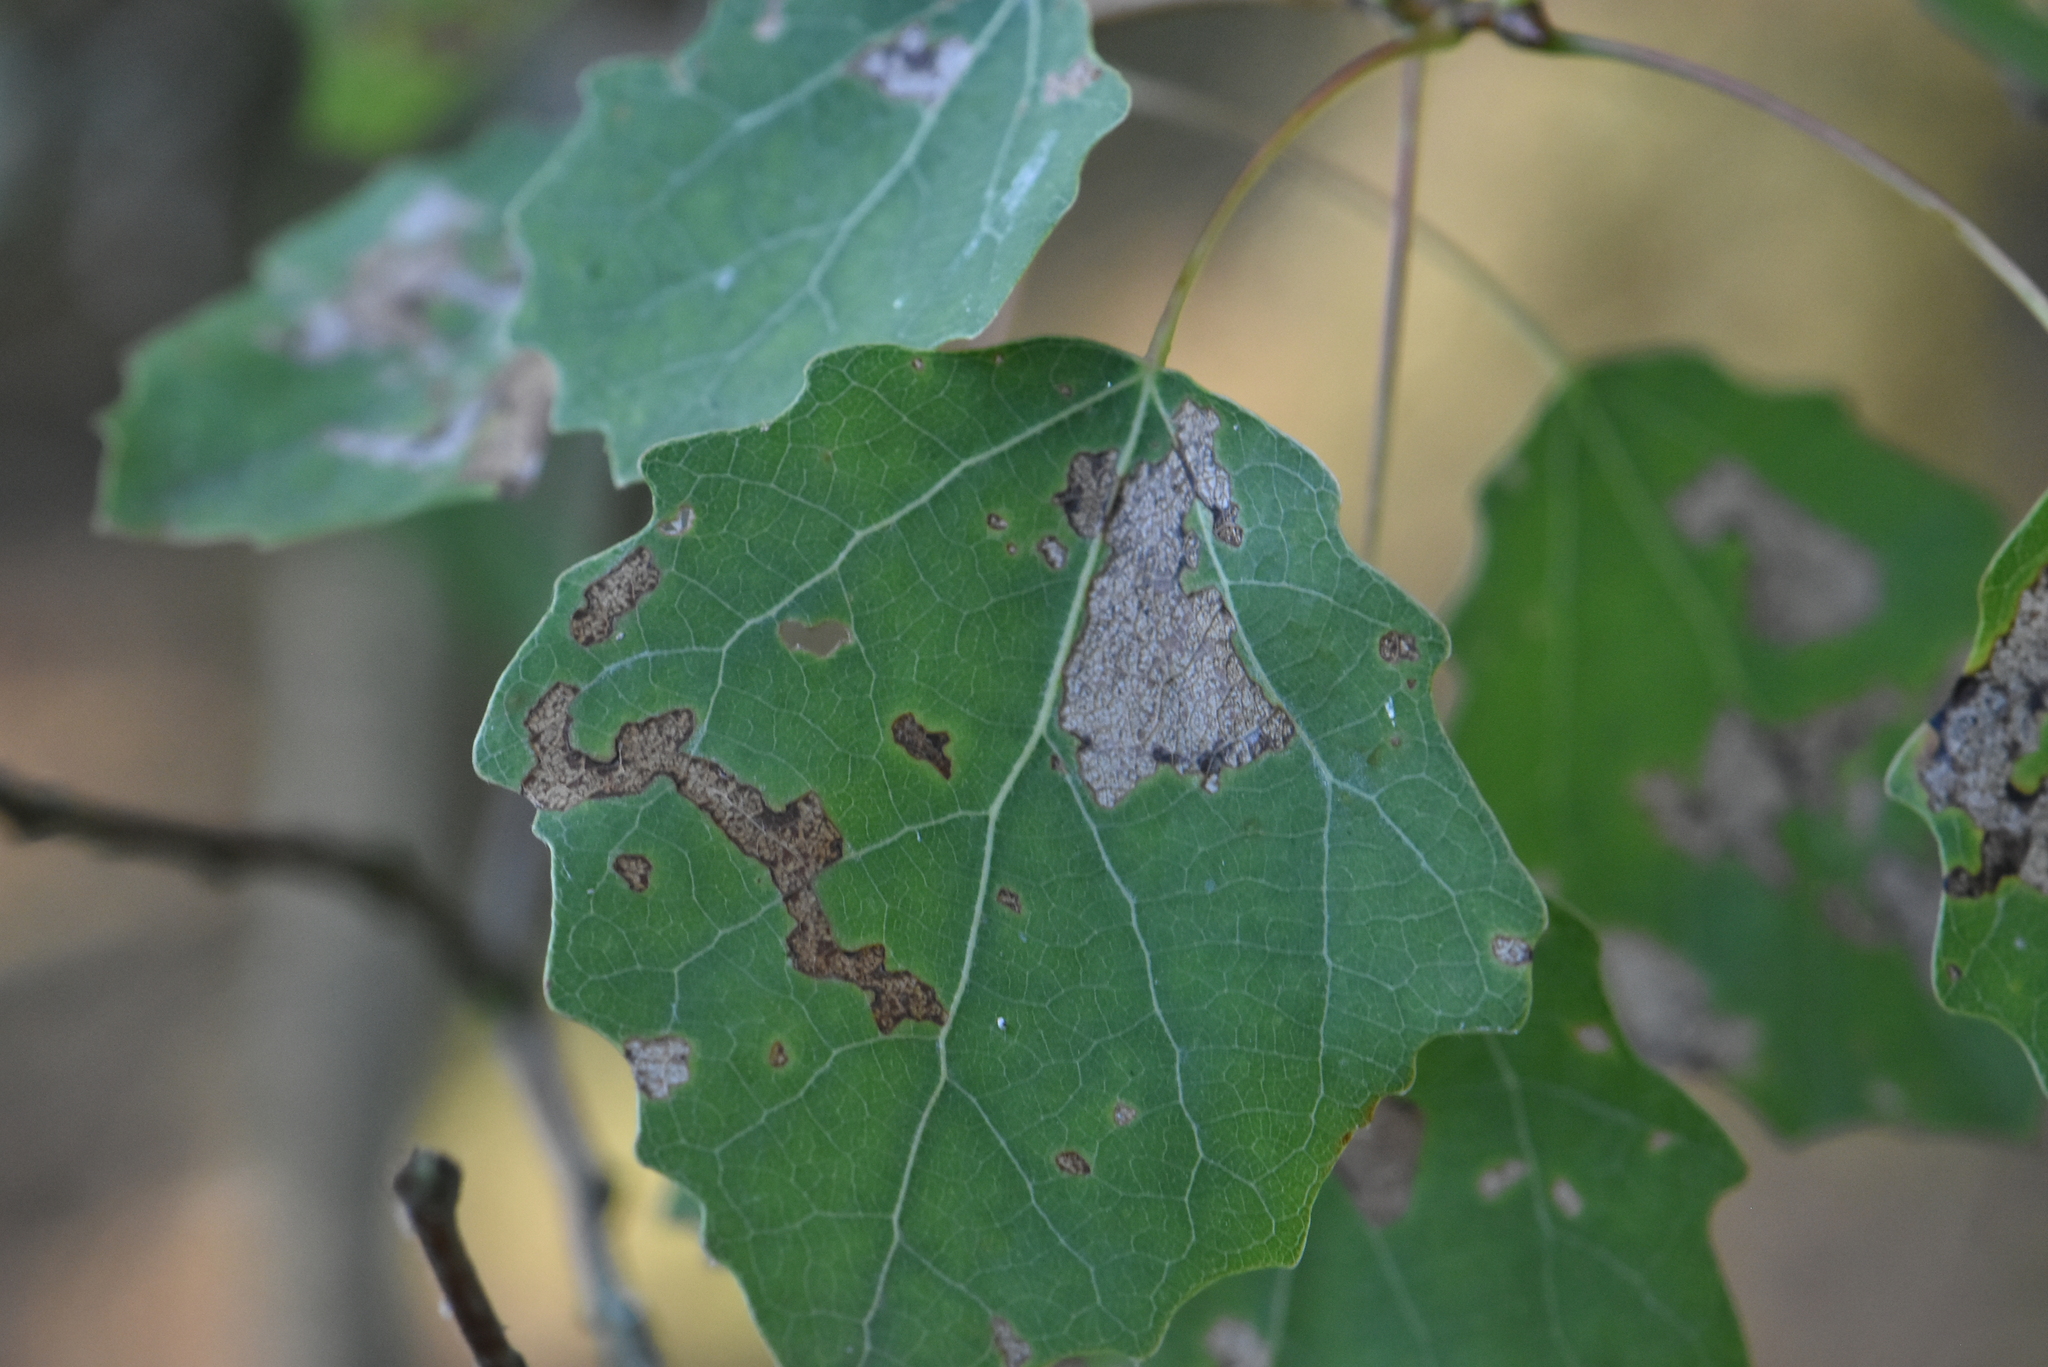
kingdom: Plantae
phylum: Tracheophyta
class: Magnoliopsida
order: Malpighiales
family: Salicaceae
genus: Populus
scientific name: Populus tremula
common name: European aspen
